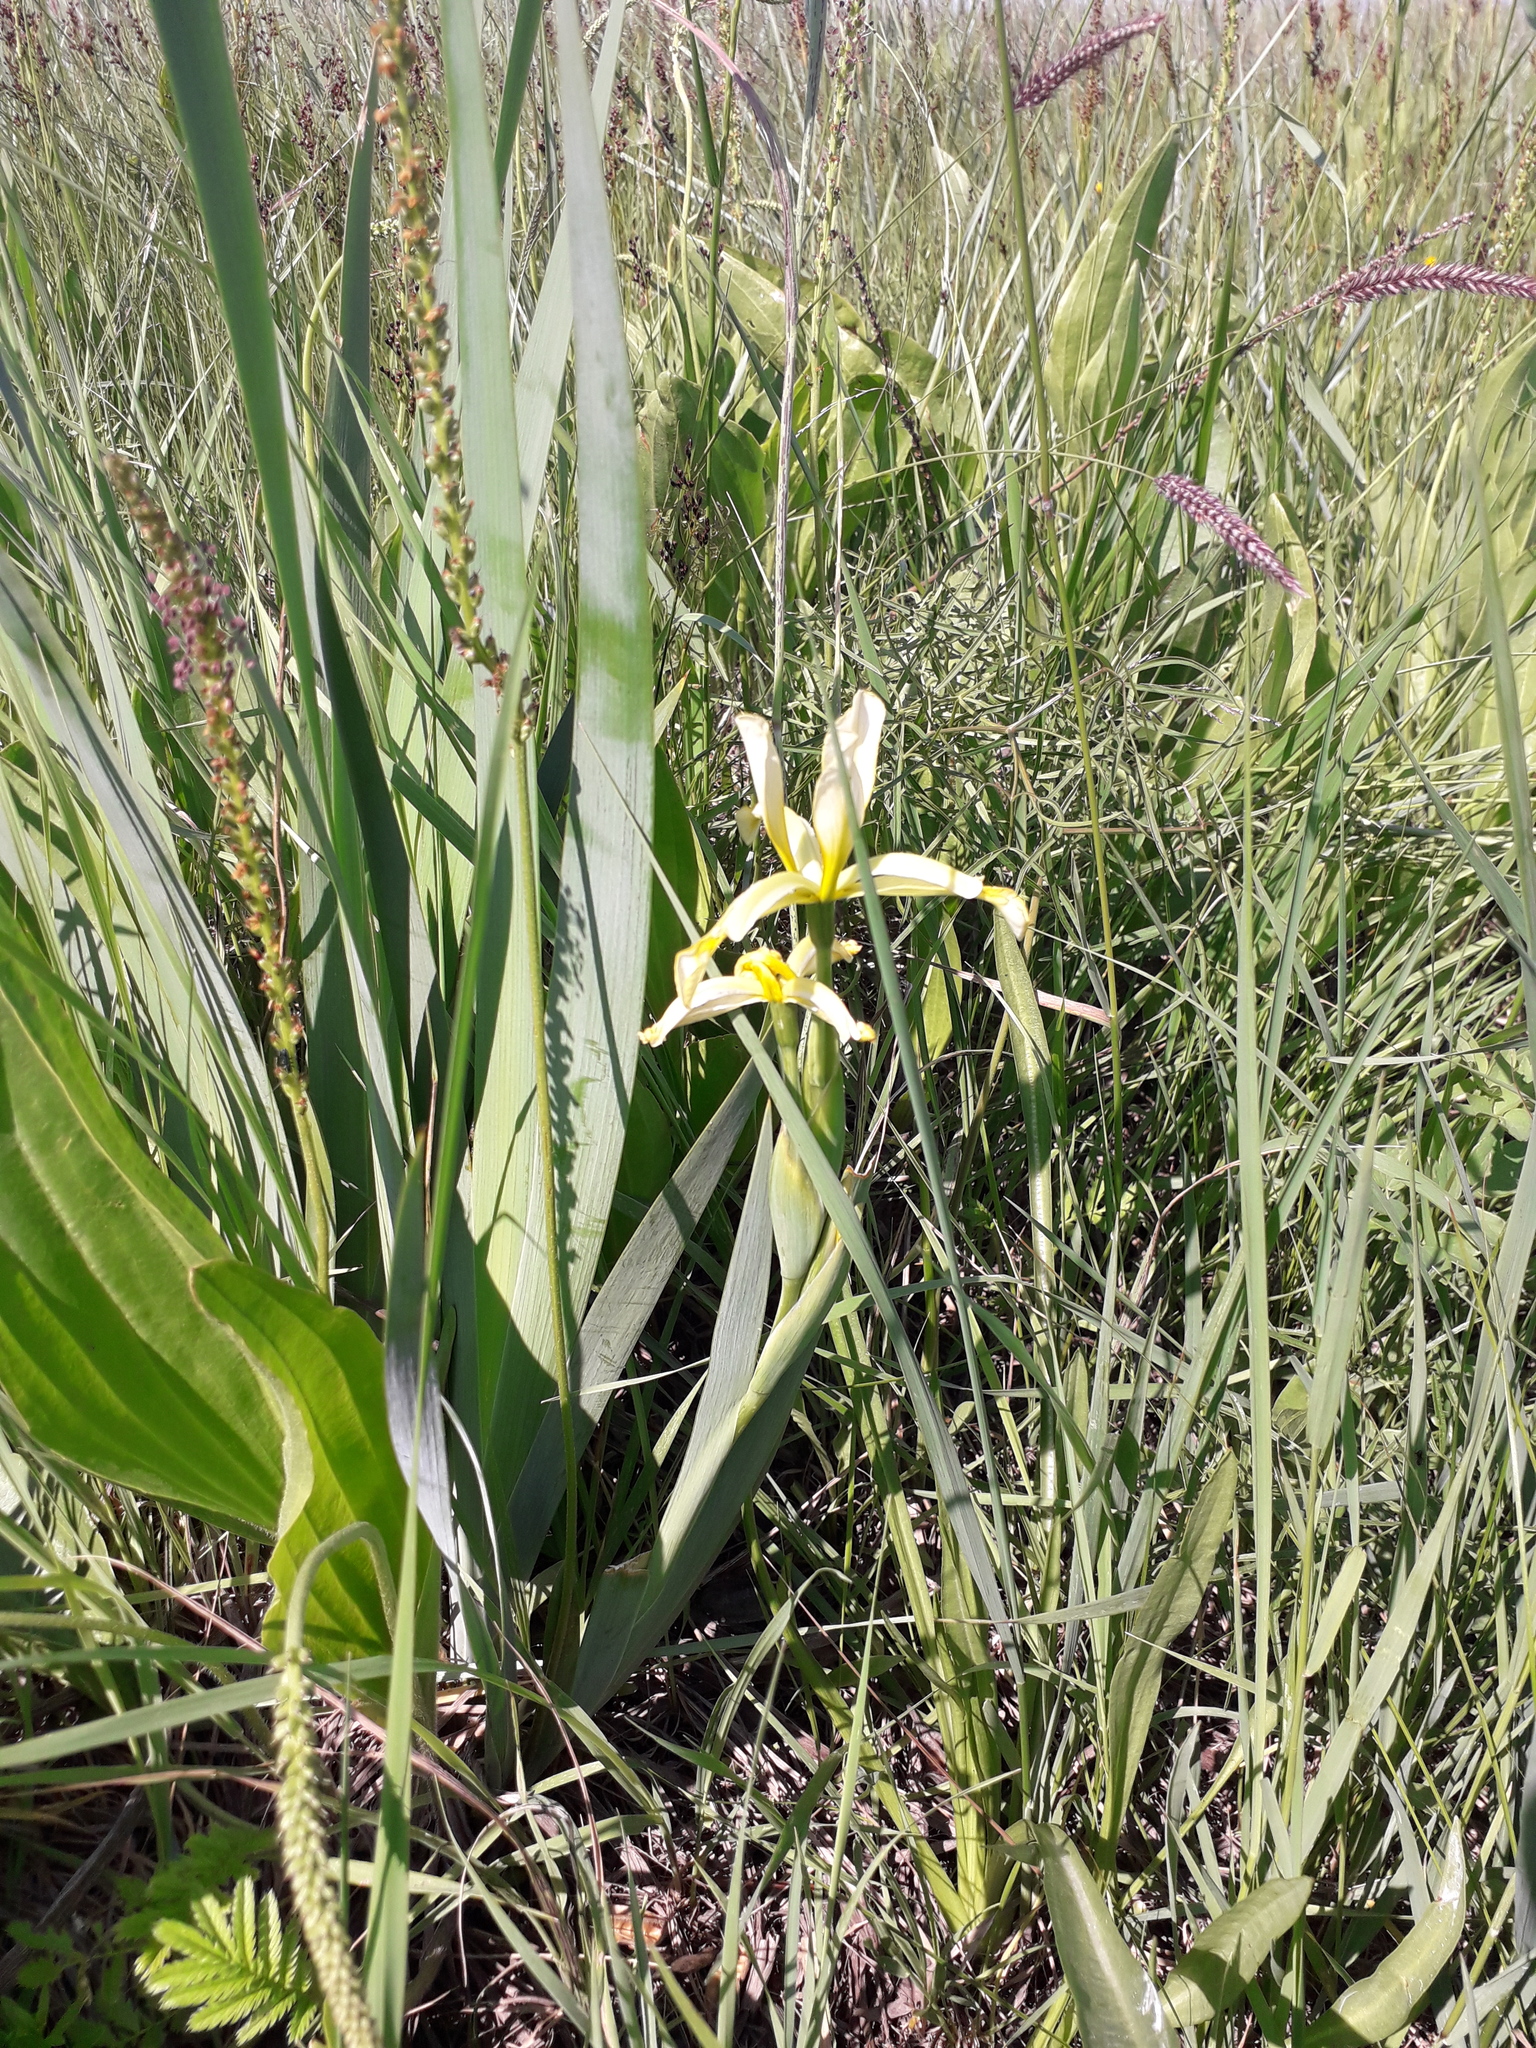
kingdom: Plantae
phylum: Tracheophyta
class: Liliopsida
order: Asparagales
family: Iridaceae
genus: Iris
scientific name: Iris halophila
